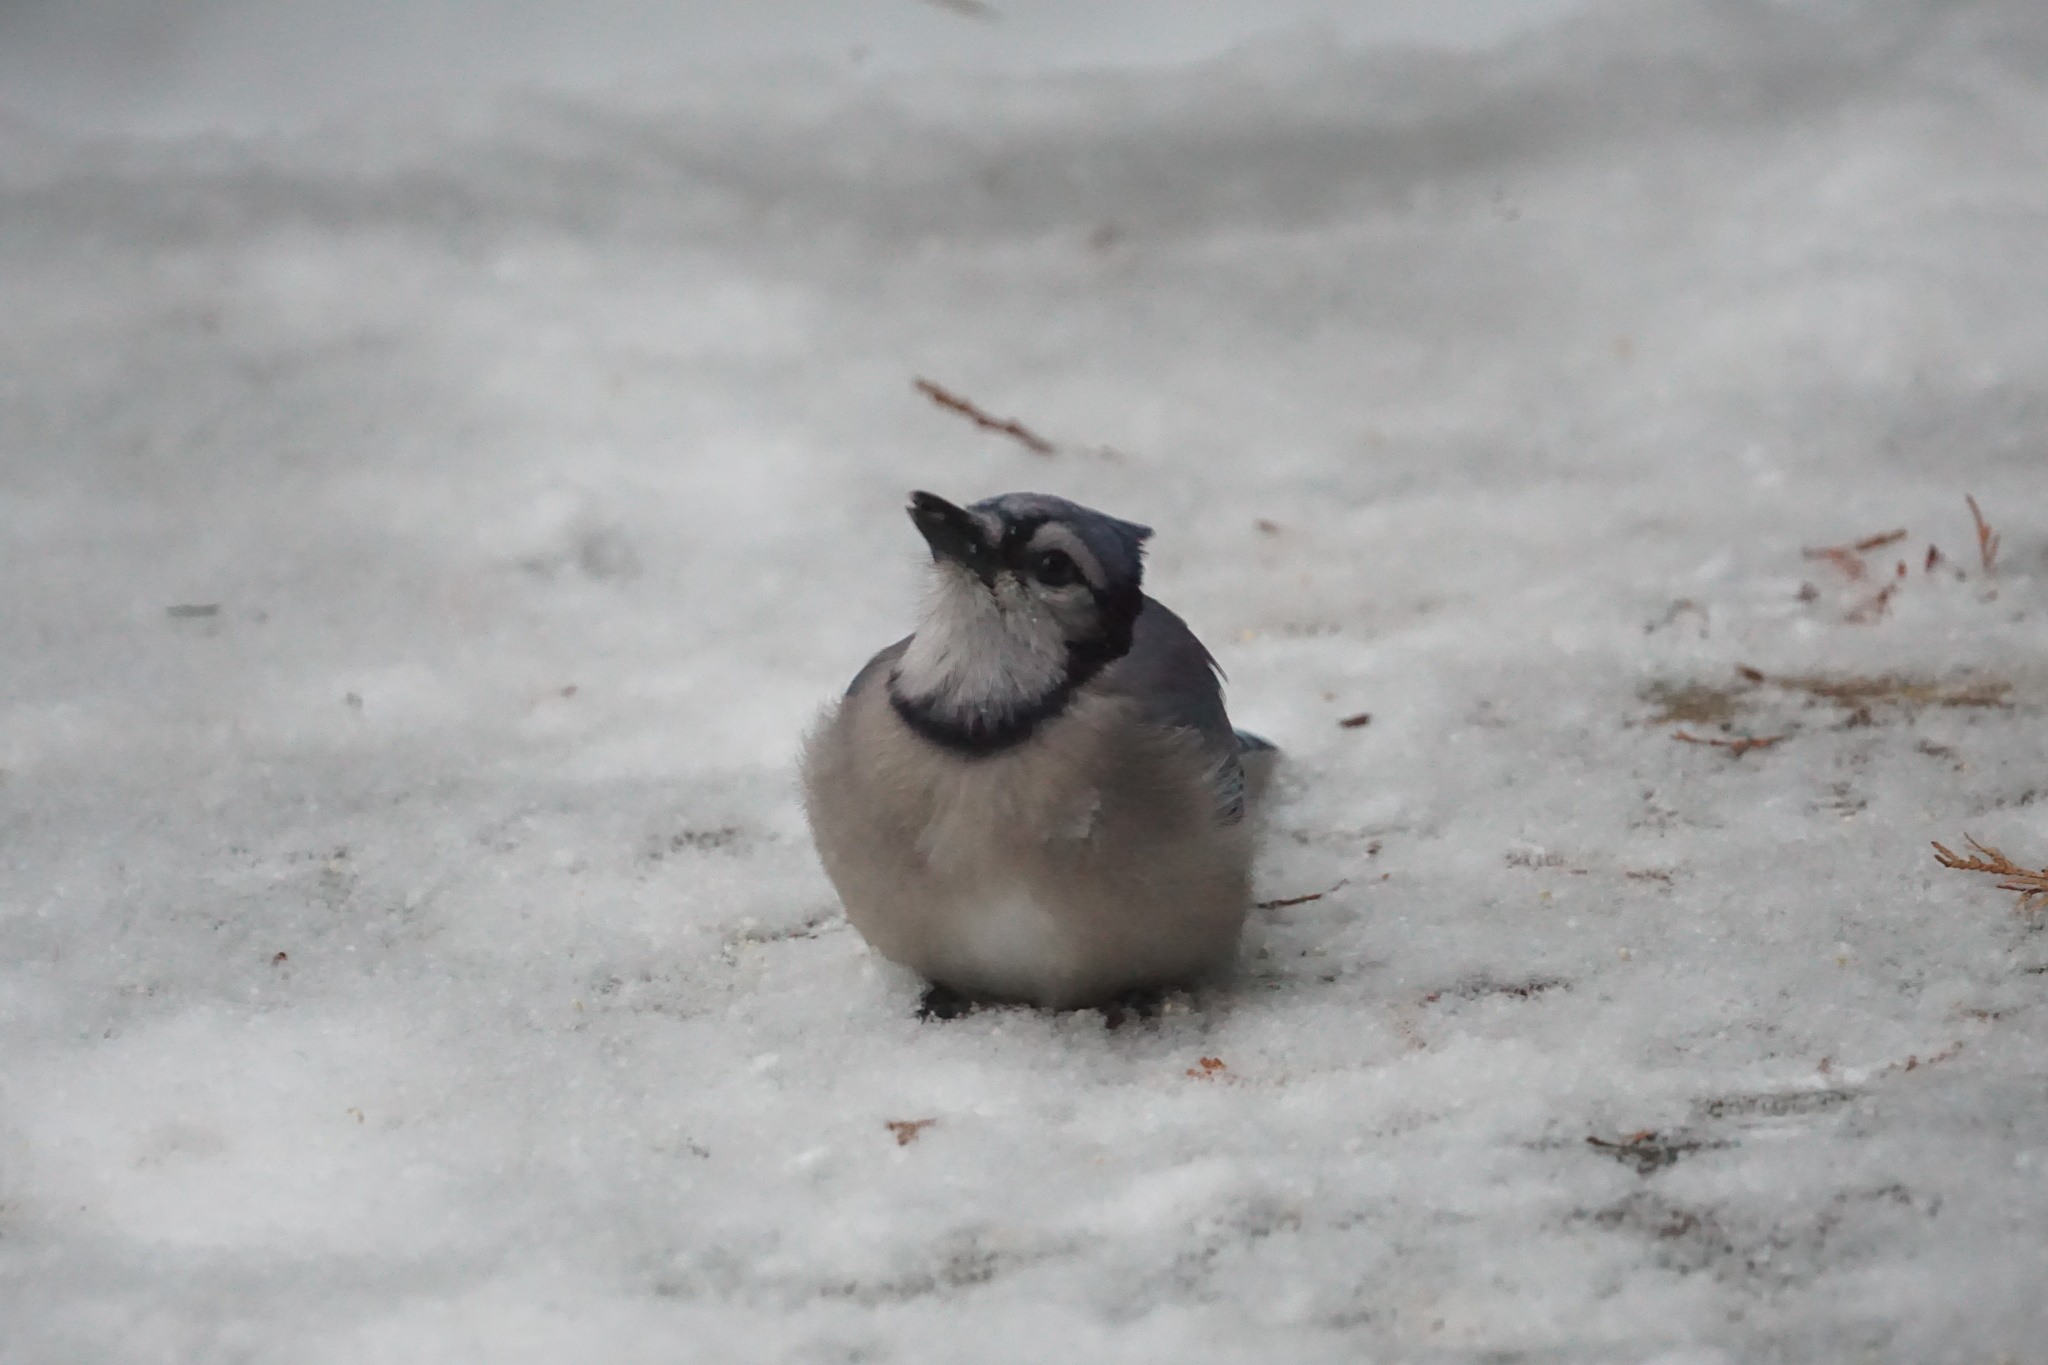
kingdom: Animalia
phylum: Chordata
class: Aves
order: Passeriformes
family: Corvidae
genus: Cyanocitta
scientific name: Cyanocitta cristata
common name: Blue jay
